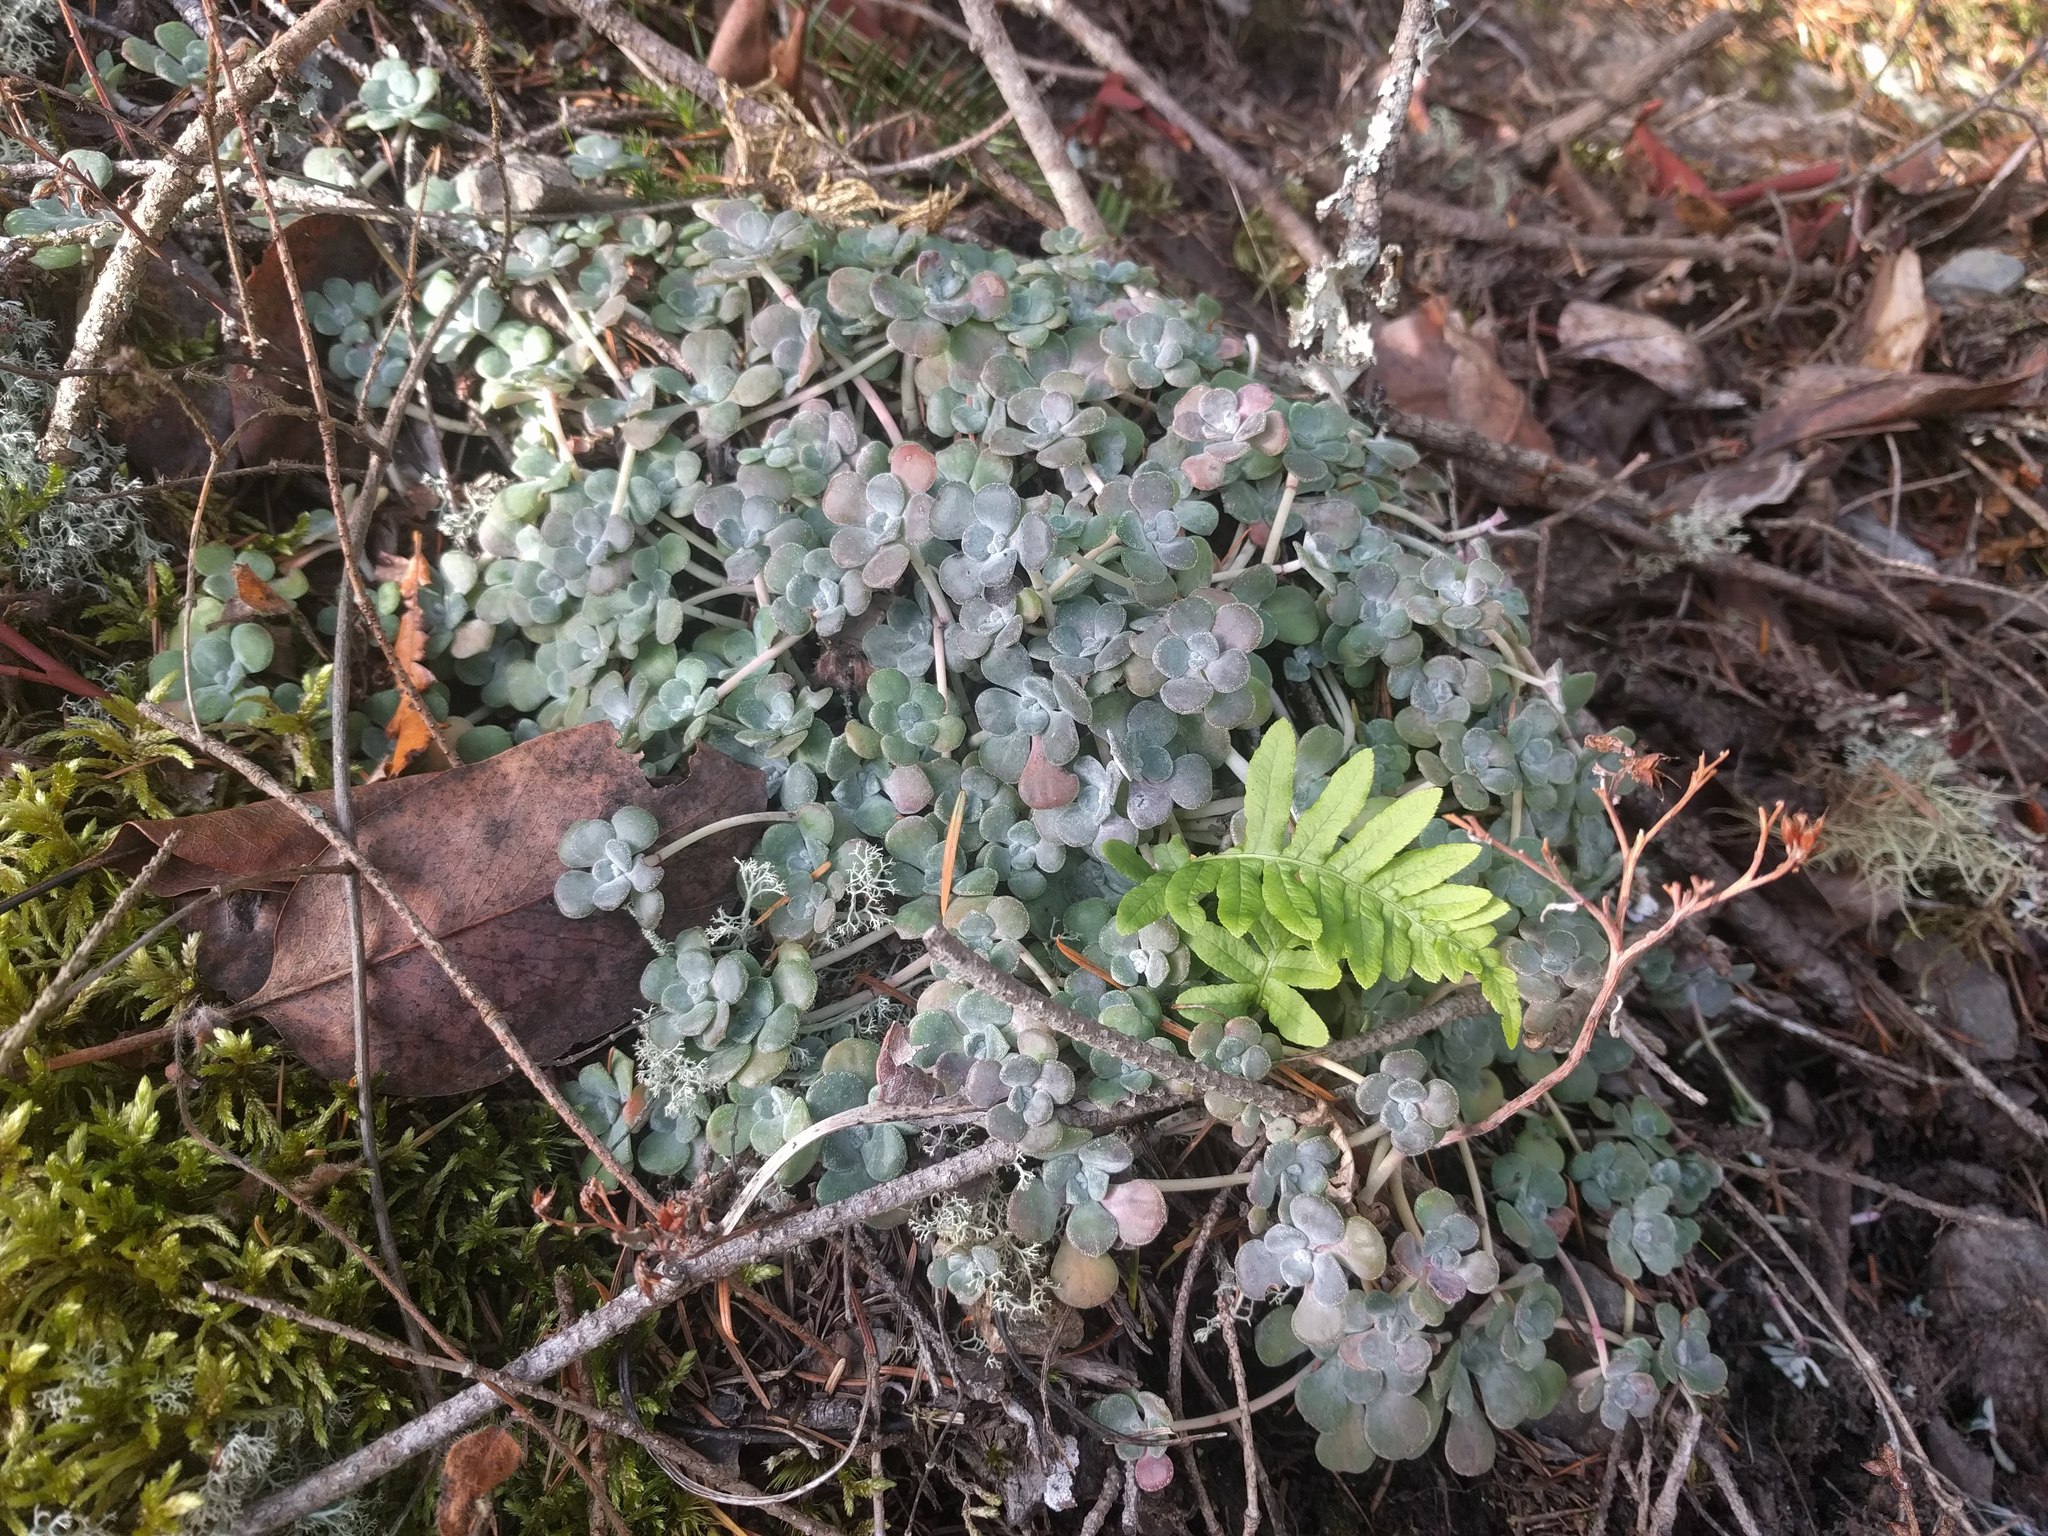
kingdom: Plantae
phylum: Tracheophyta
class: Magnoliopsida
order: Saxifragales
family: Crassulaceae
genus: Sedum
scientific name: Sedum spathulifolium
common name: Colorado stonecrop
